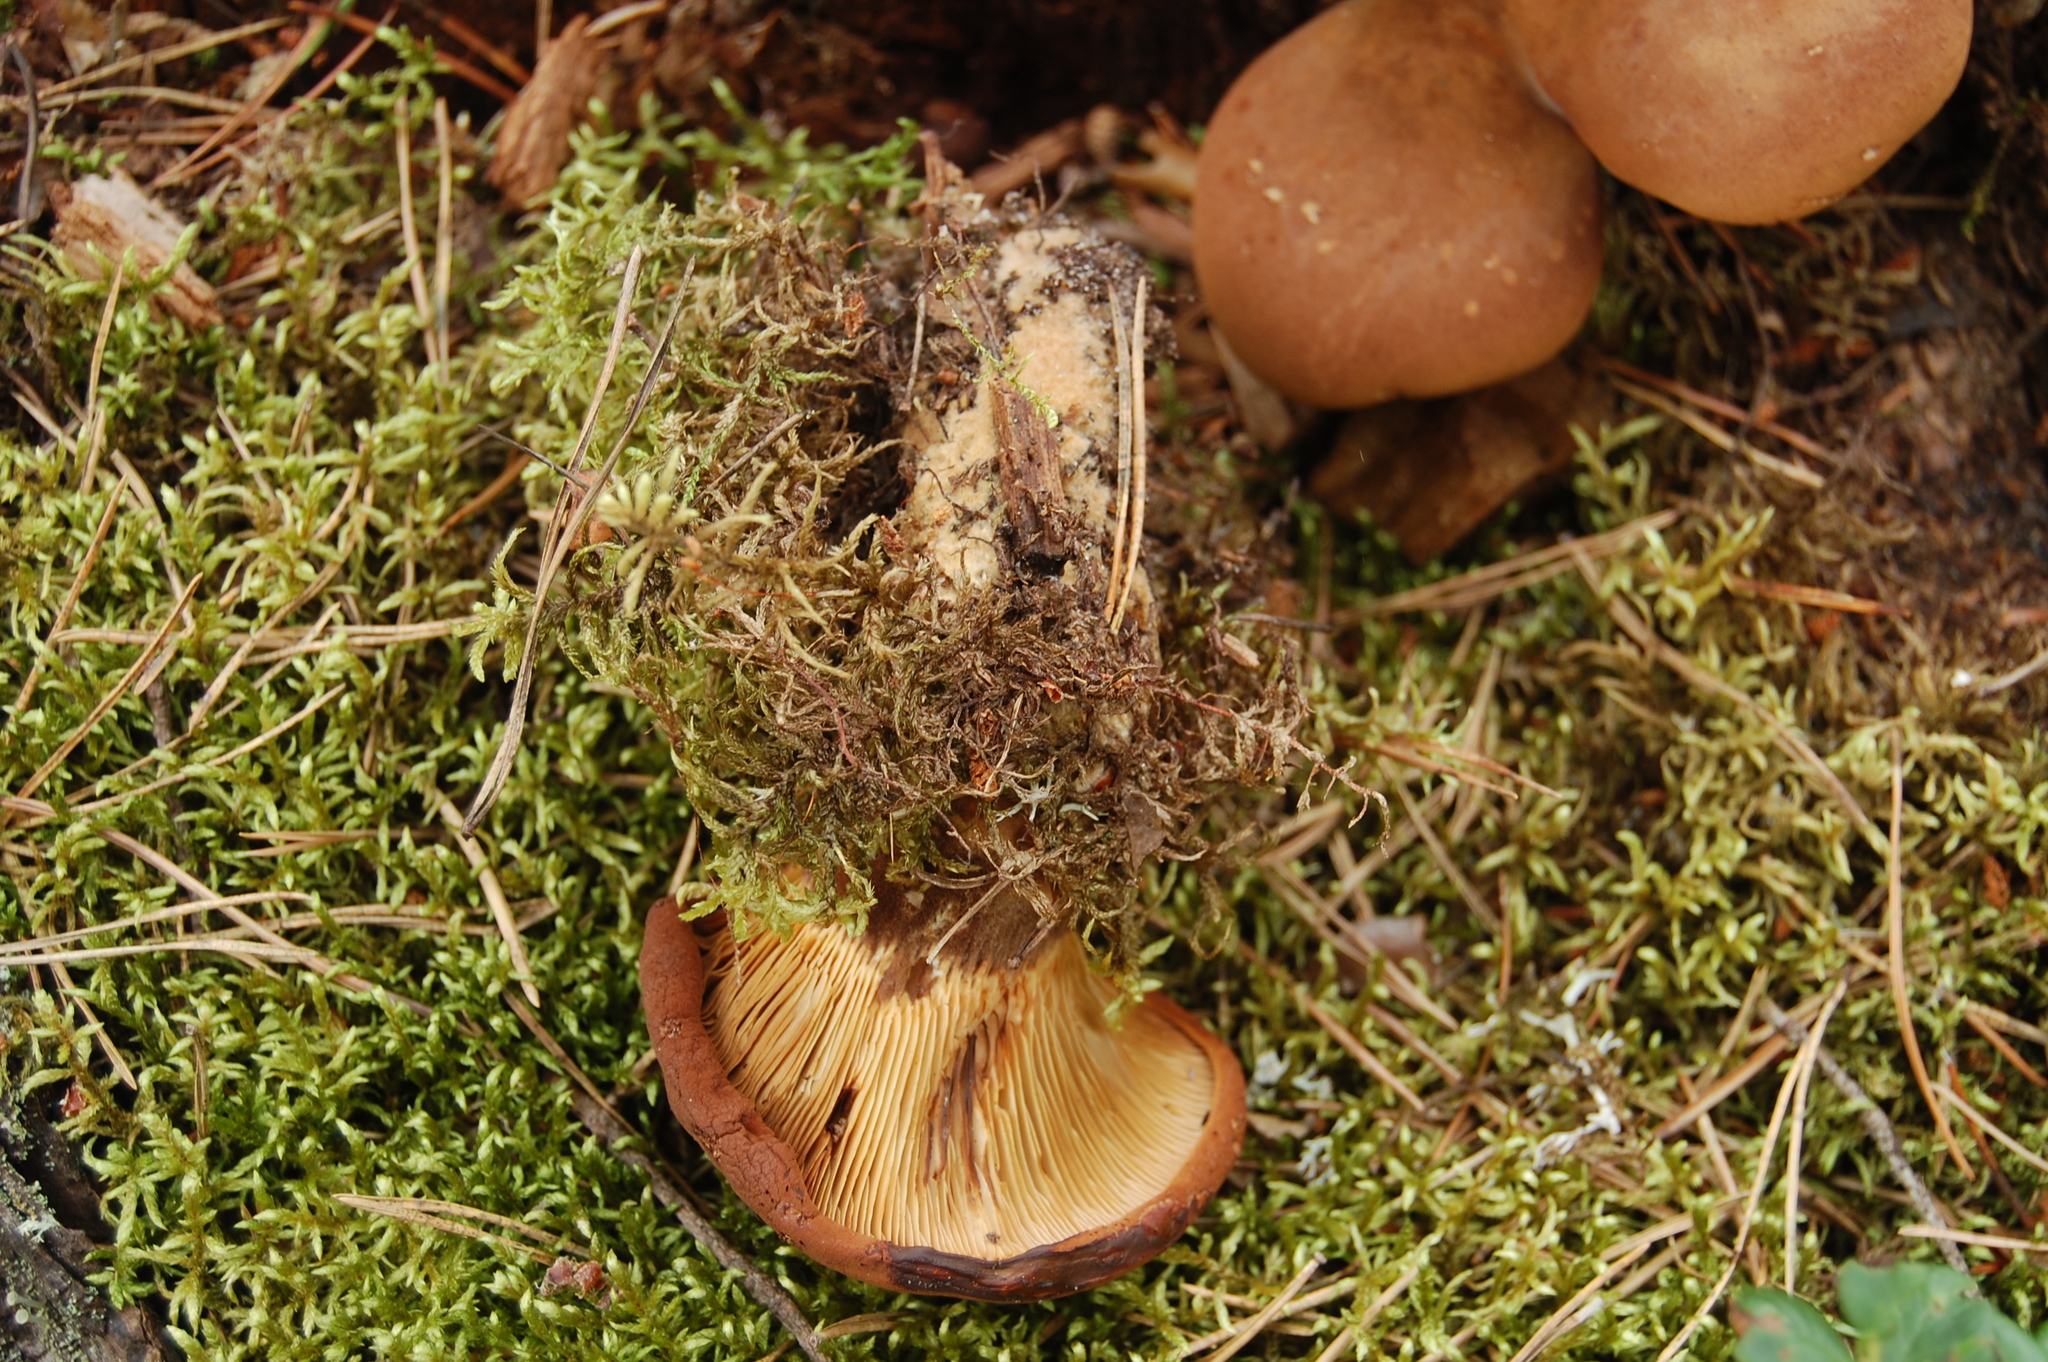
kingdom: Fungi
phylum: Basidiomycota
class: Agaricomycetes
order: Boletales
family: Tapinellaceae
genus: Tapinella
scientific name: Tapinella atrotomentosa
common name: Velvet rollrim
